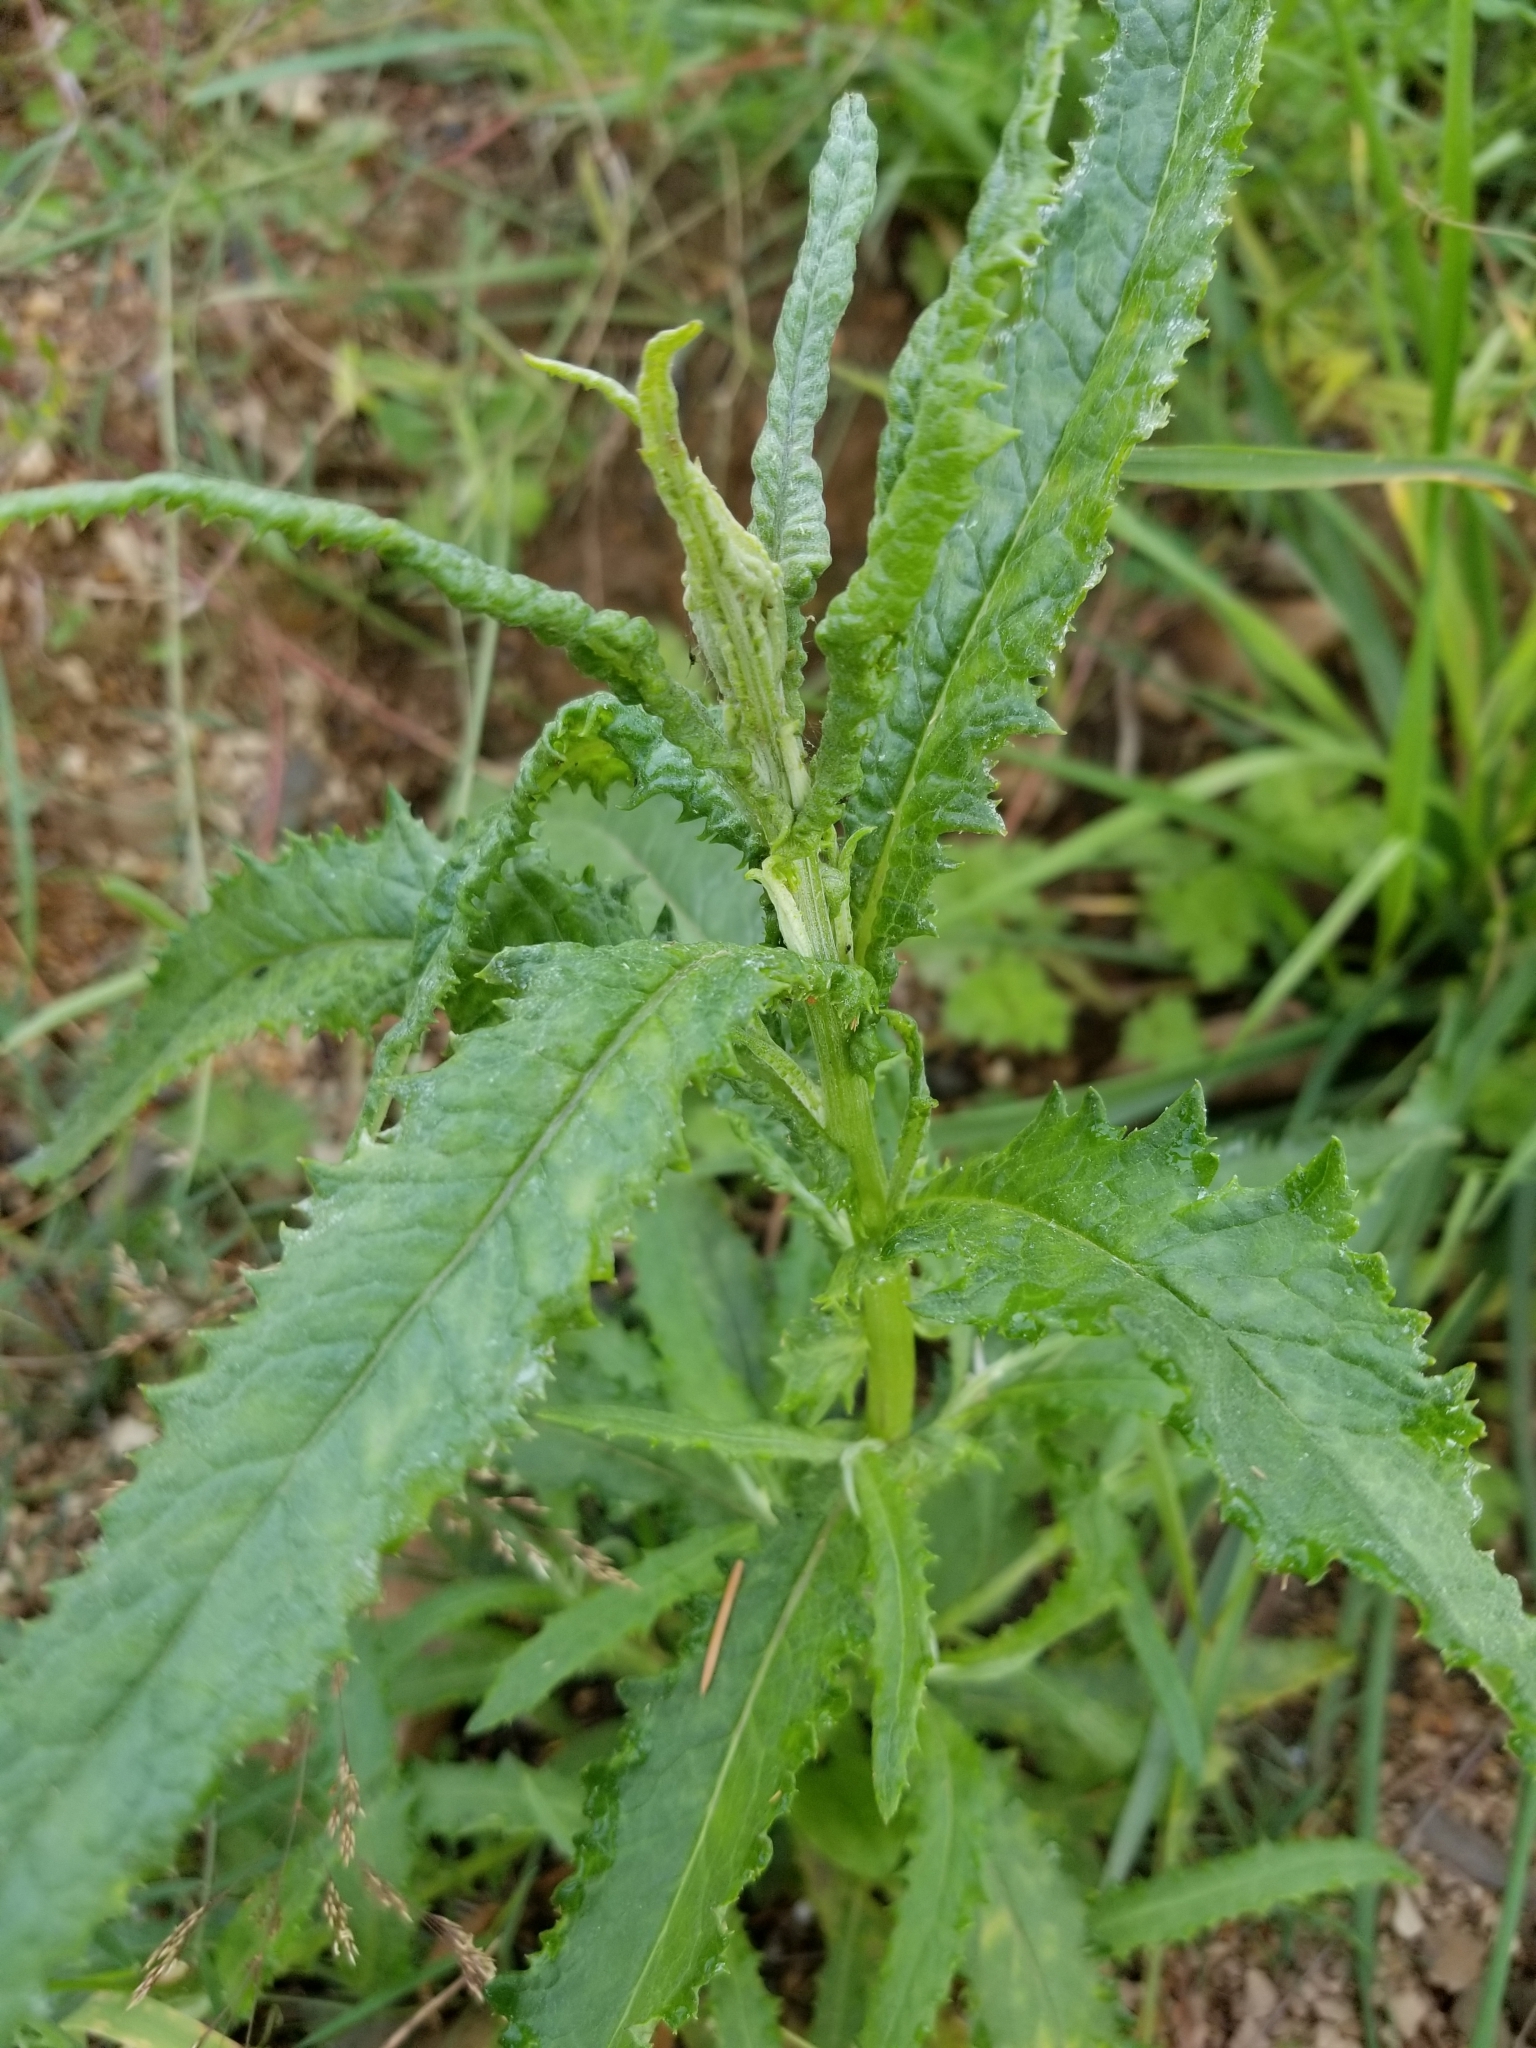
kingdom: Plantae
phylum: Tracheophyta
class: Magnoliopsida
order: Asterales
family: Asteraceae
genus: Senecio
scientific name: Senecio minimus
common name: Toothed fireweed
